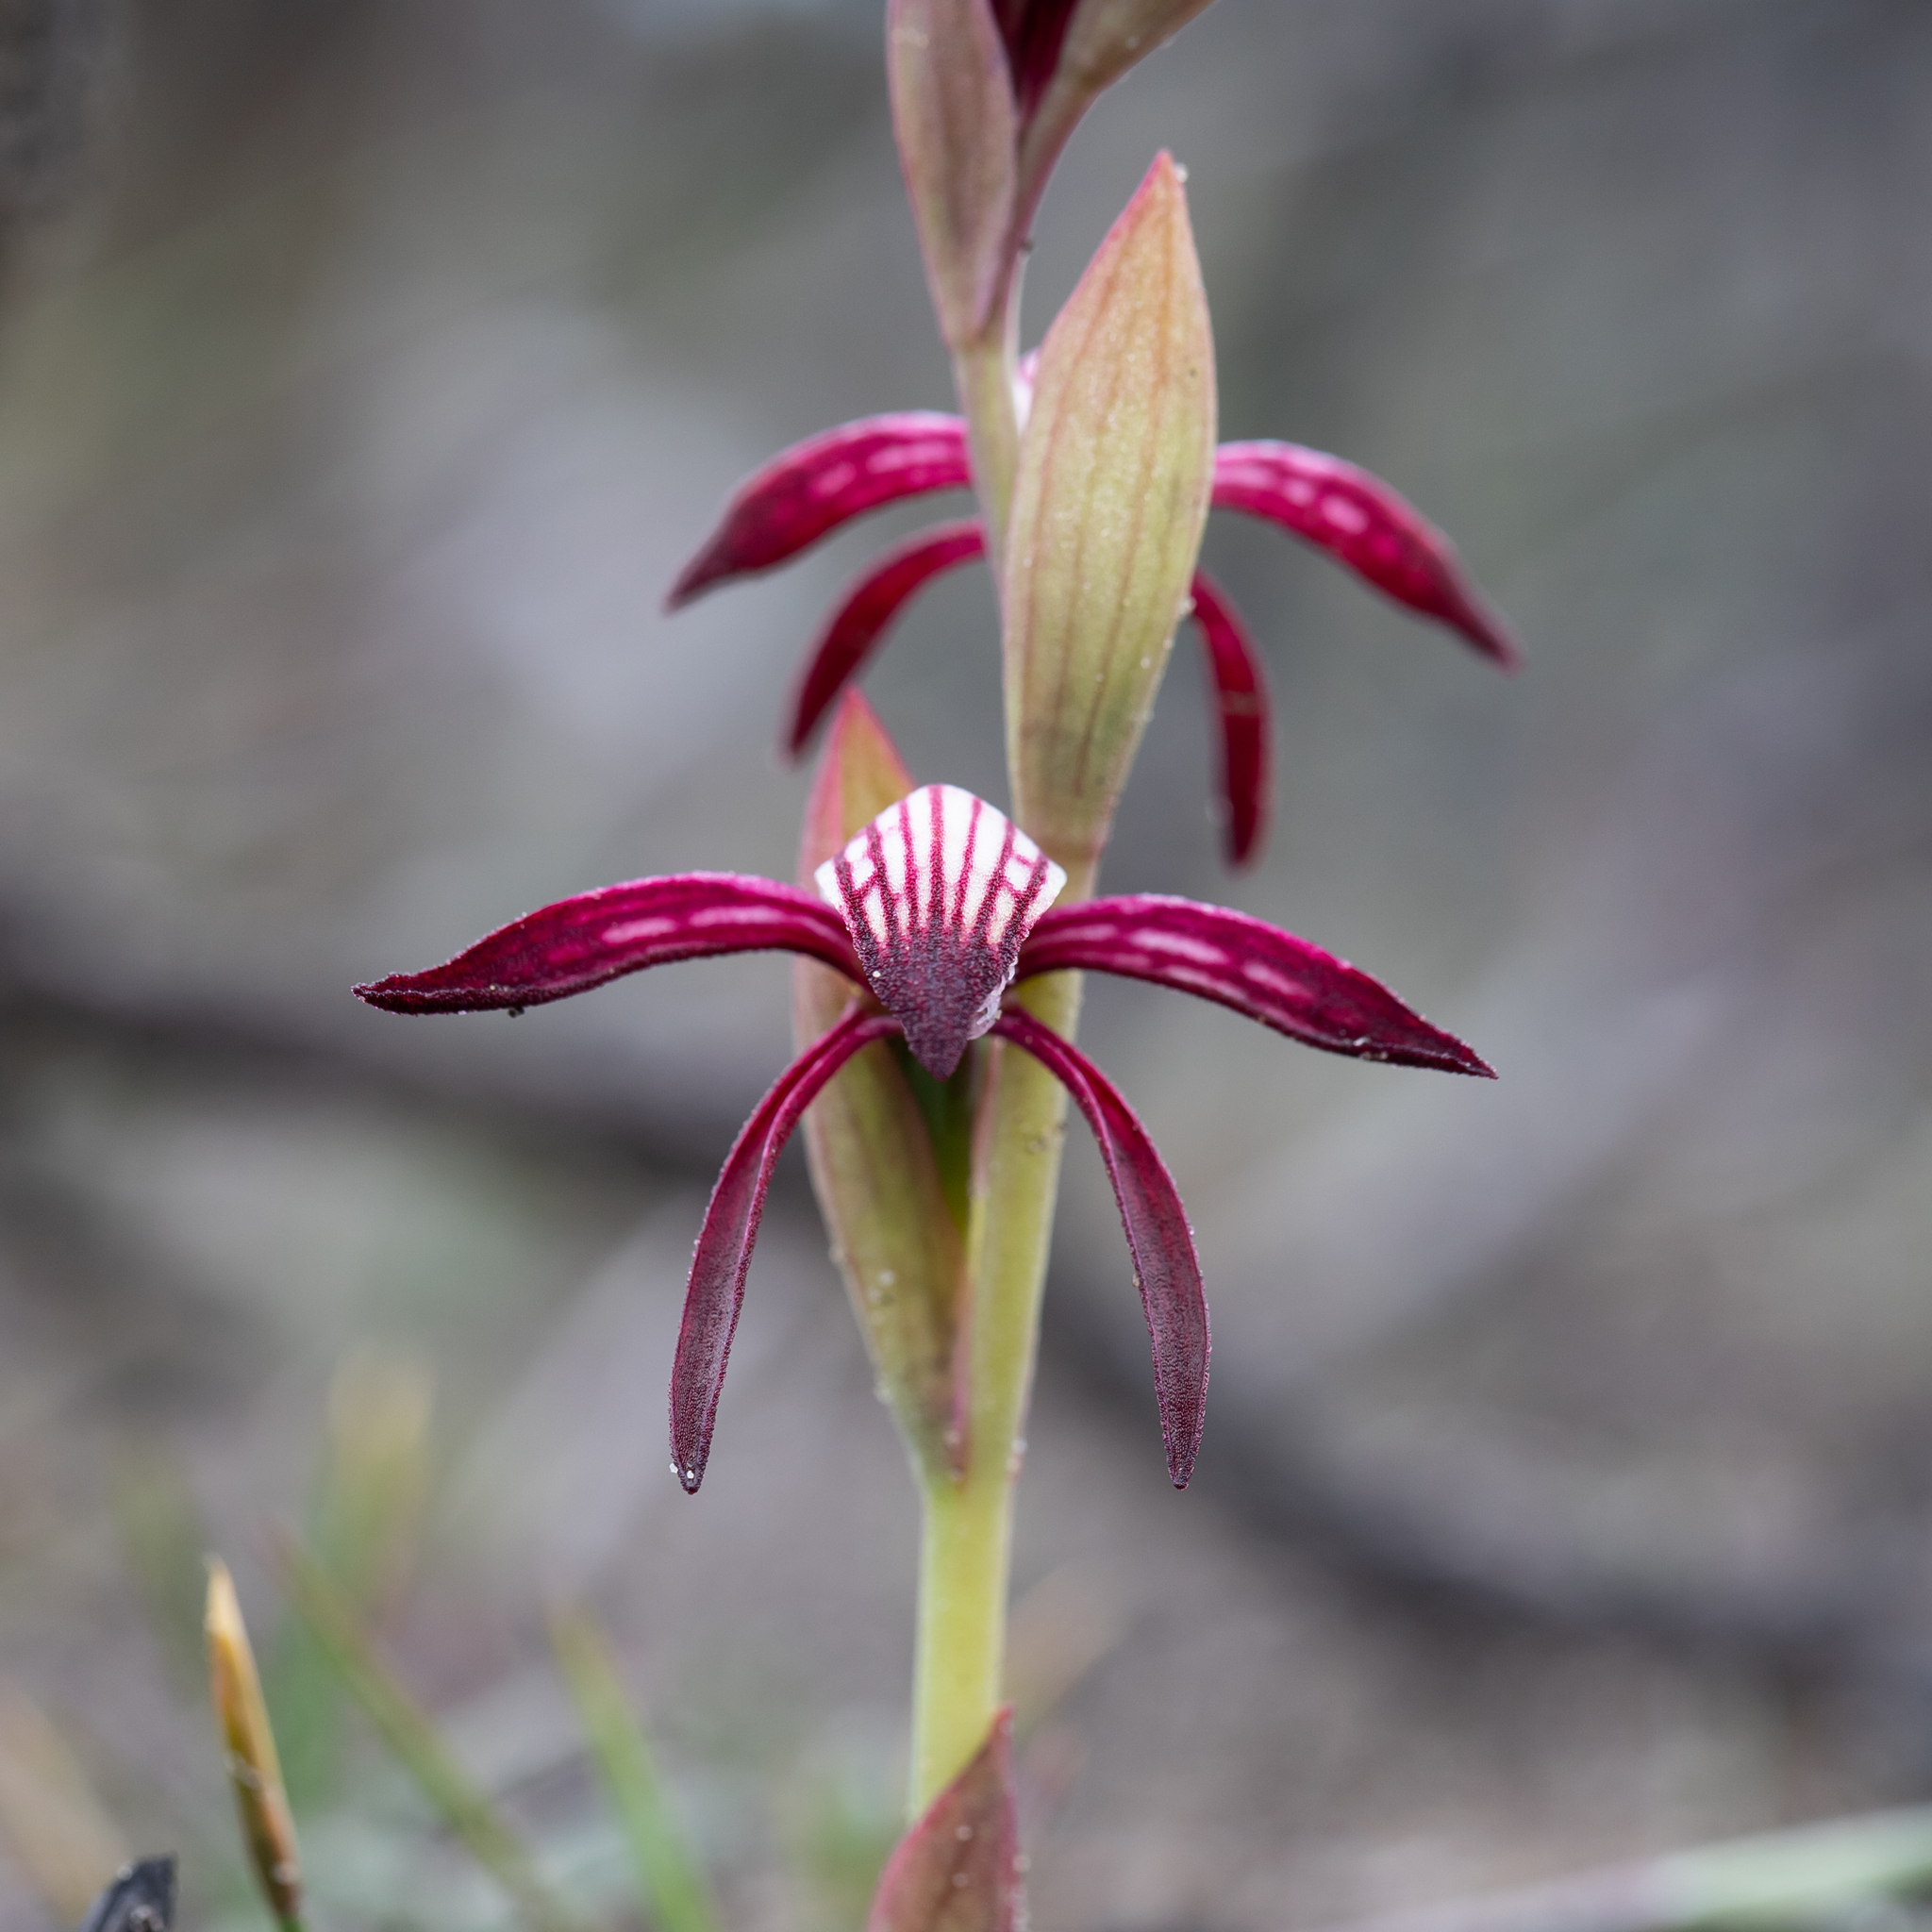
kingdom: Plantae
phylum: Tracheophyta
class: Liliopsida
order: Asparagales
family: Orchidaceae
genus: Pyrorchis
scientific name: Pyrorchis nigricans
